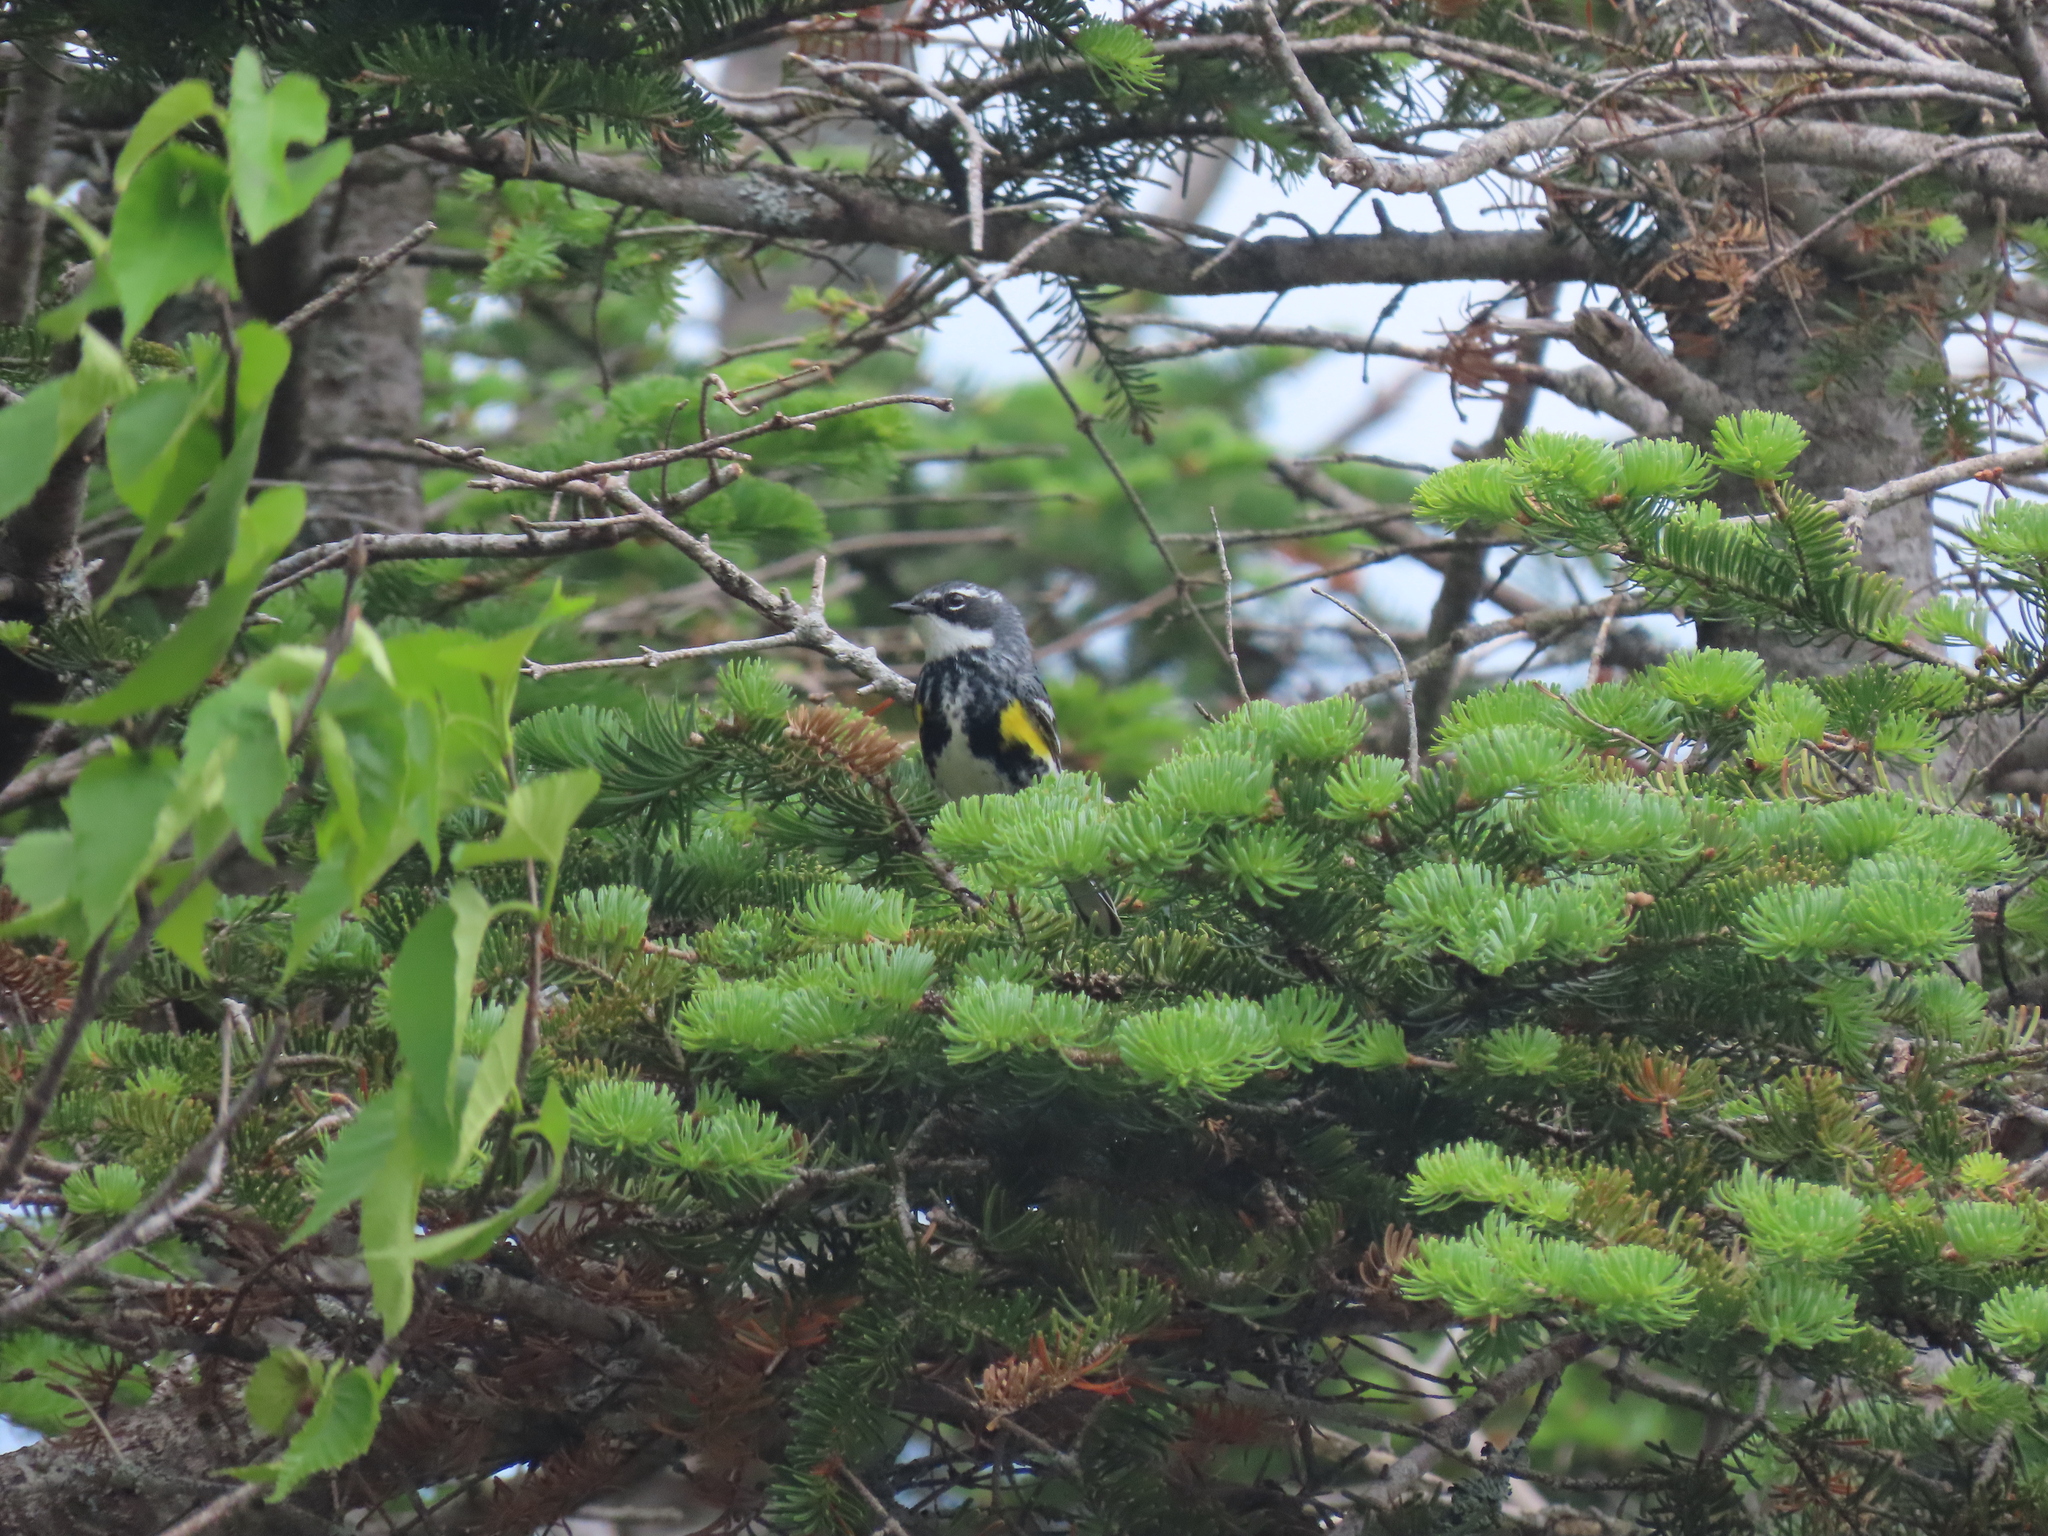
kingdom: Animalia
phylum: Chordata
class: Aves
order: Passeriformes
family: Parulidae
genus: Setophaga
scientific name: Setophaga coronata
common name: Myrtle warbler
